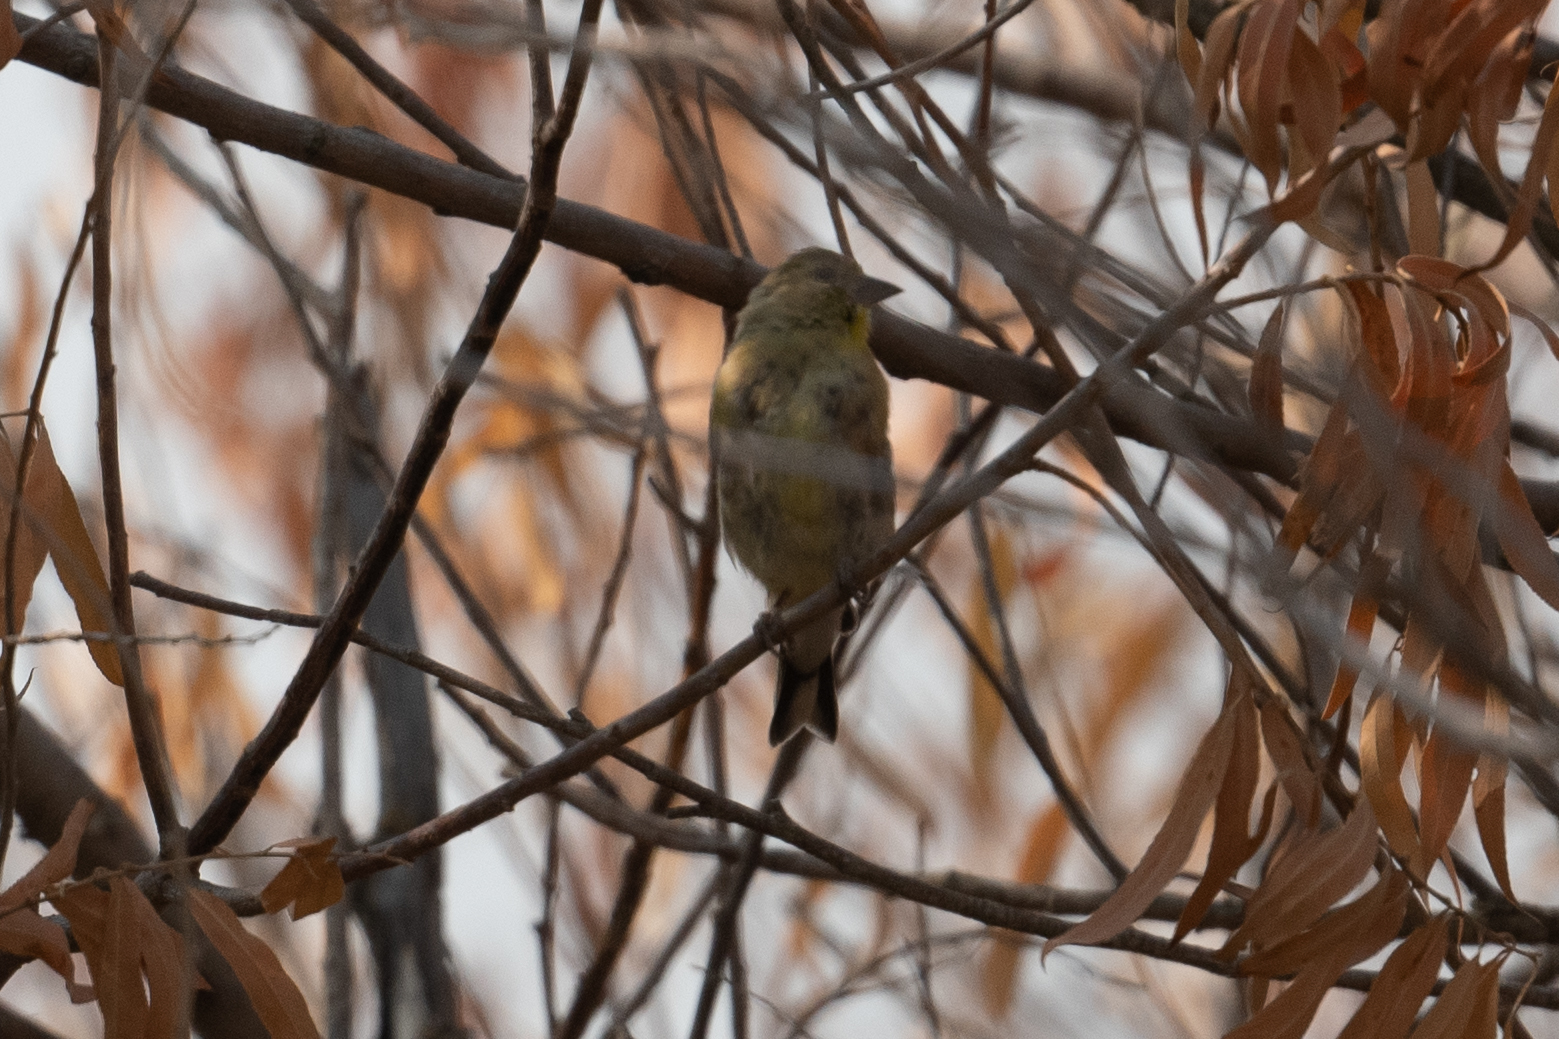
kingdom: Animalia
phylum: Chordata
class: Aves
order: Passeriformes
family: Fringillidae
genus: Spinus
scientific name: Spinus psaltria
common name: Lesser goldfinch
